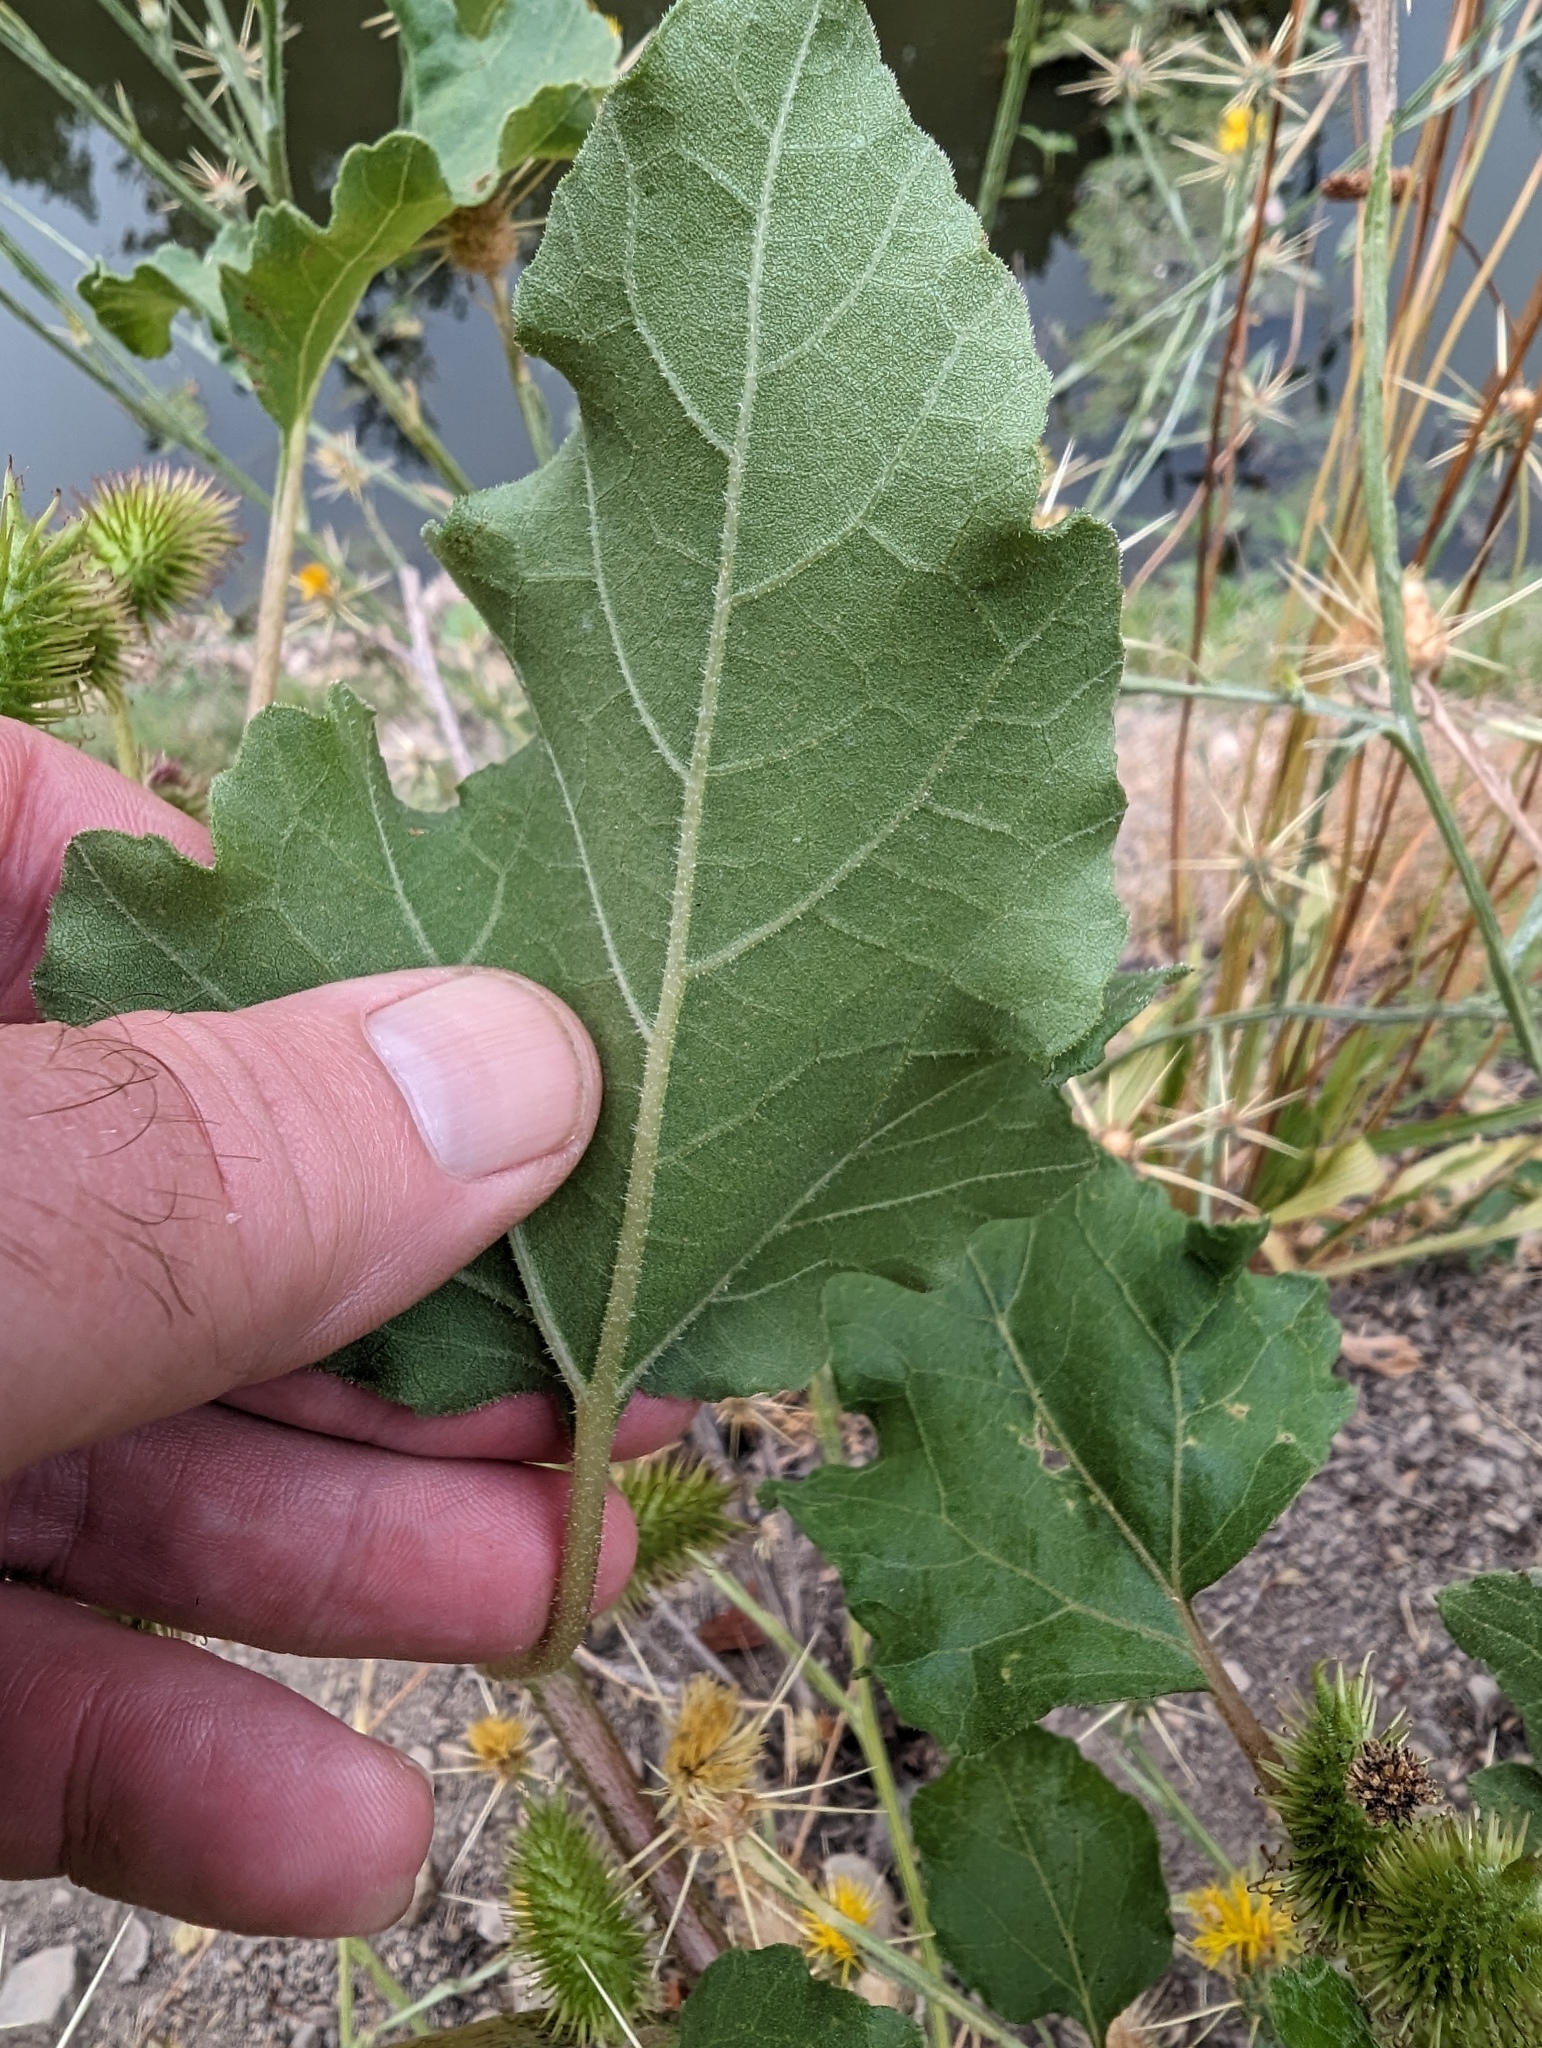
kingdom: Plantae
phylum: Tracheophyta
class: Magnoliopsida
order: Asterales
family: Asteraceae
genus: Xanthium
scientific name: Xanthium orientale
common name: Californian burr
